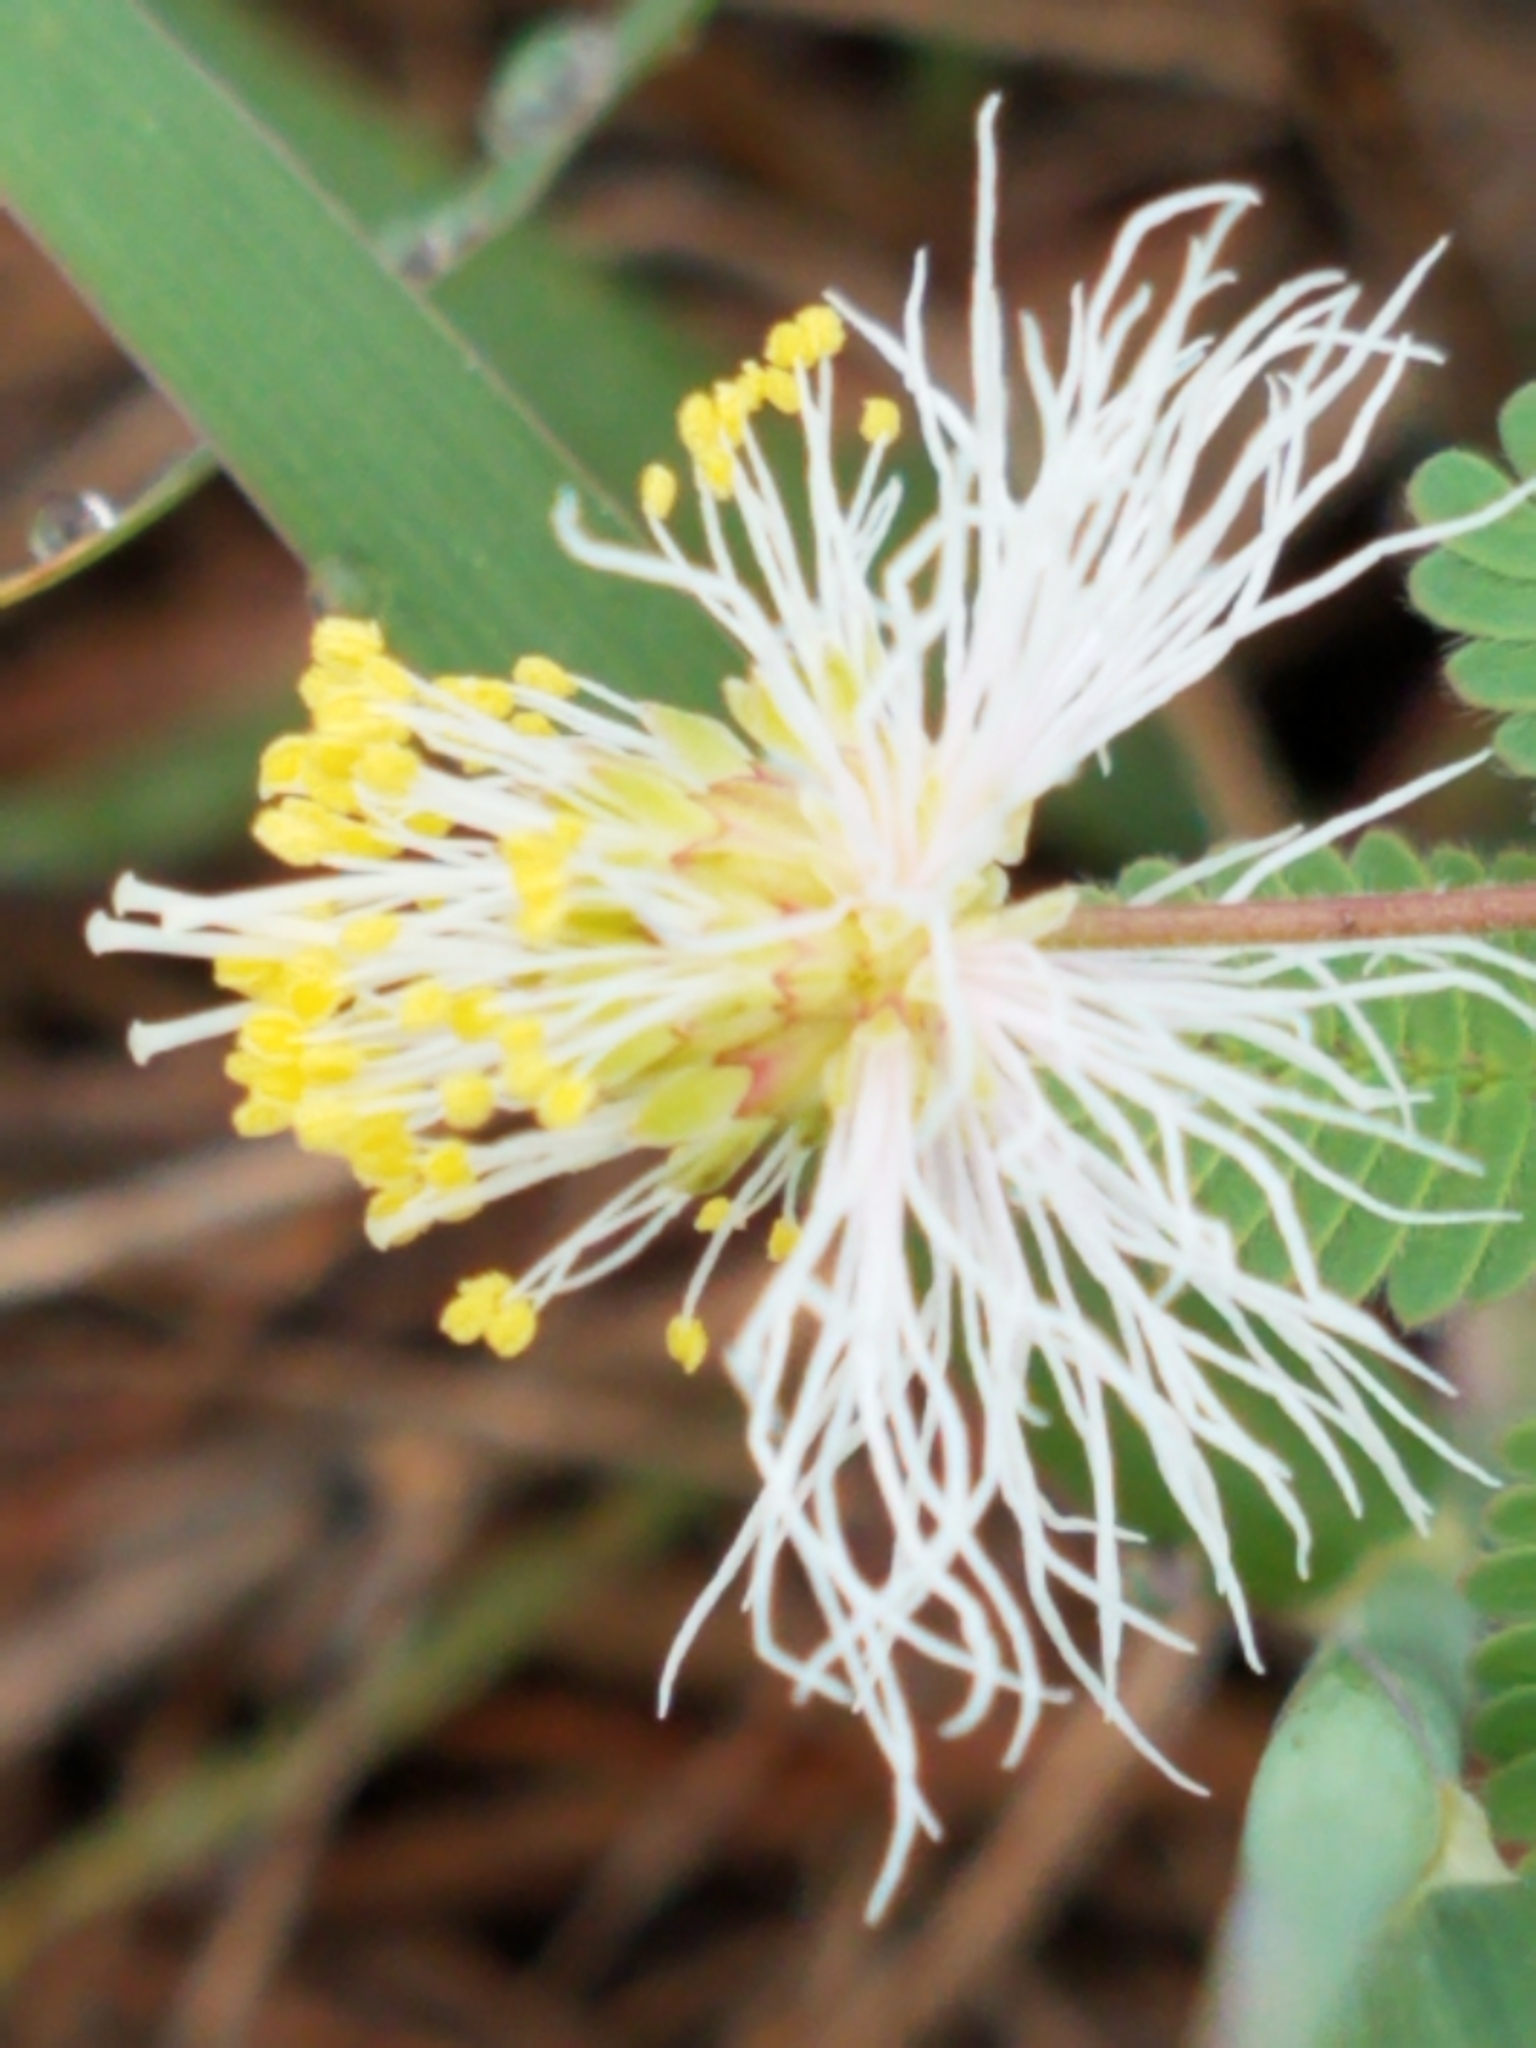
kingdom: Plantae
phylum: Tracheophyta
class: Magnoliopsida
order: Fabales
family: Fabaceae
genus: Desmanthus
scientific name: Desmanthus velutinus
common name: Velvet bundle-flower
